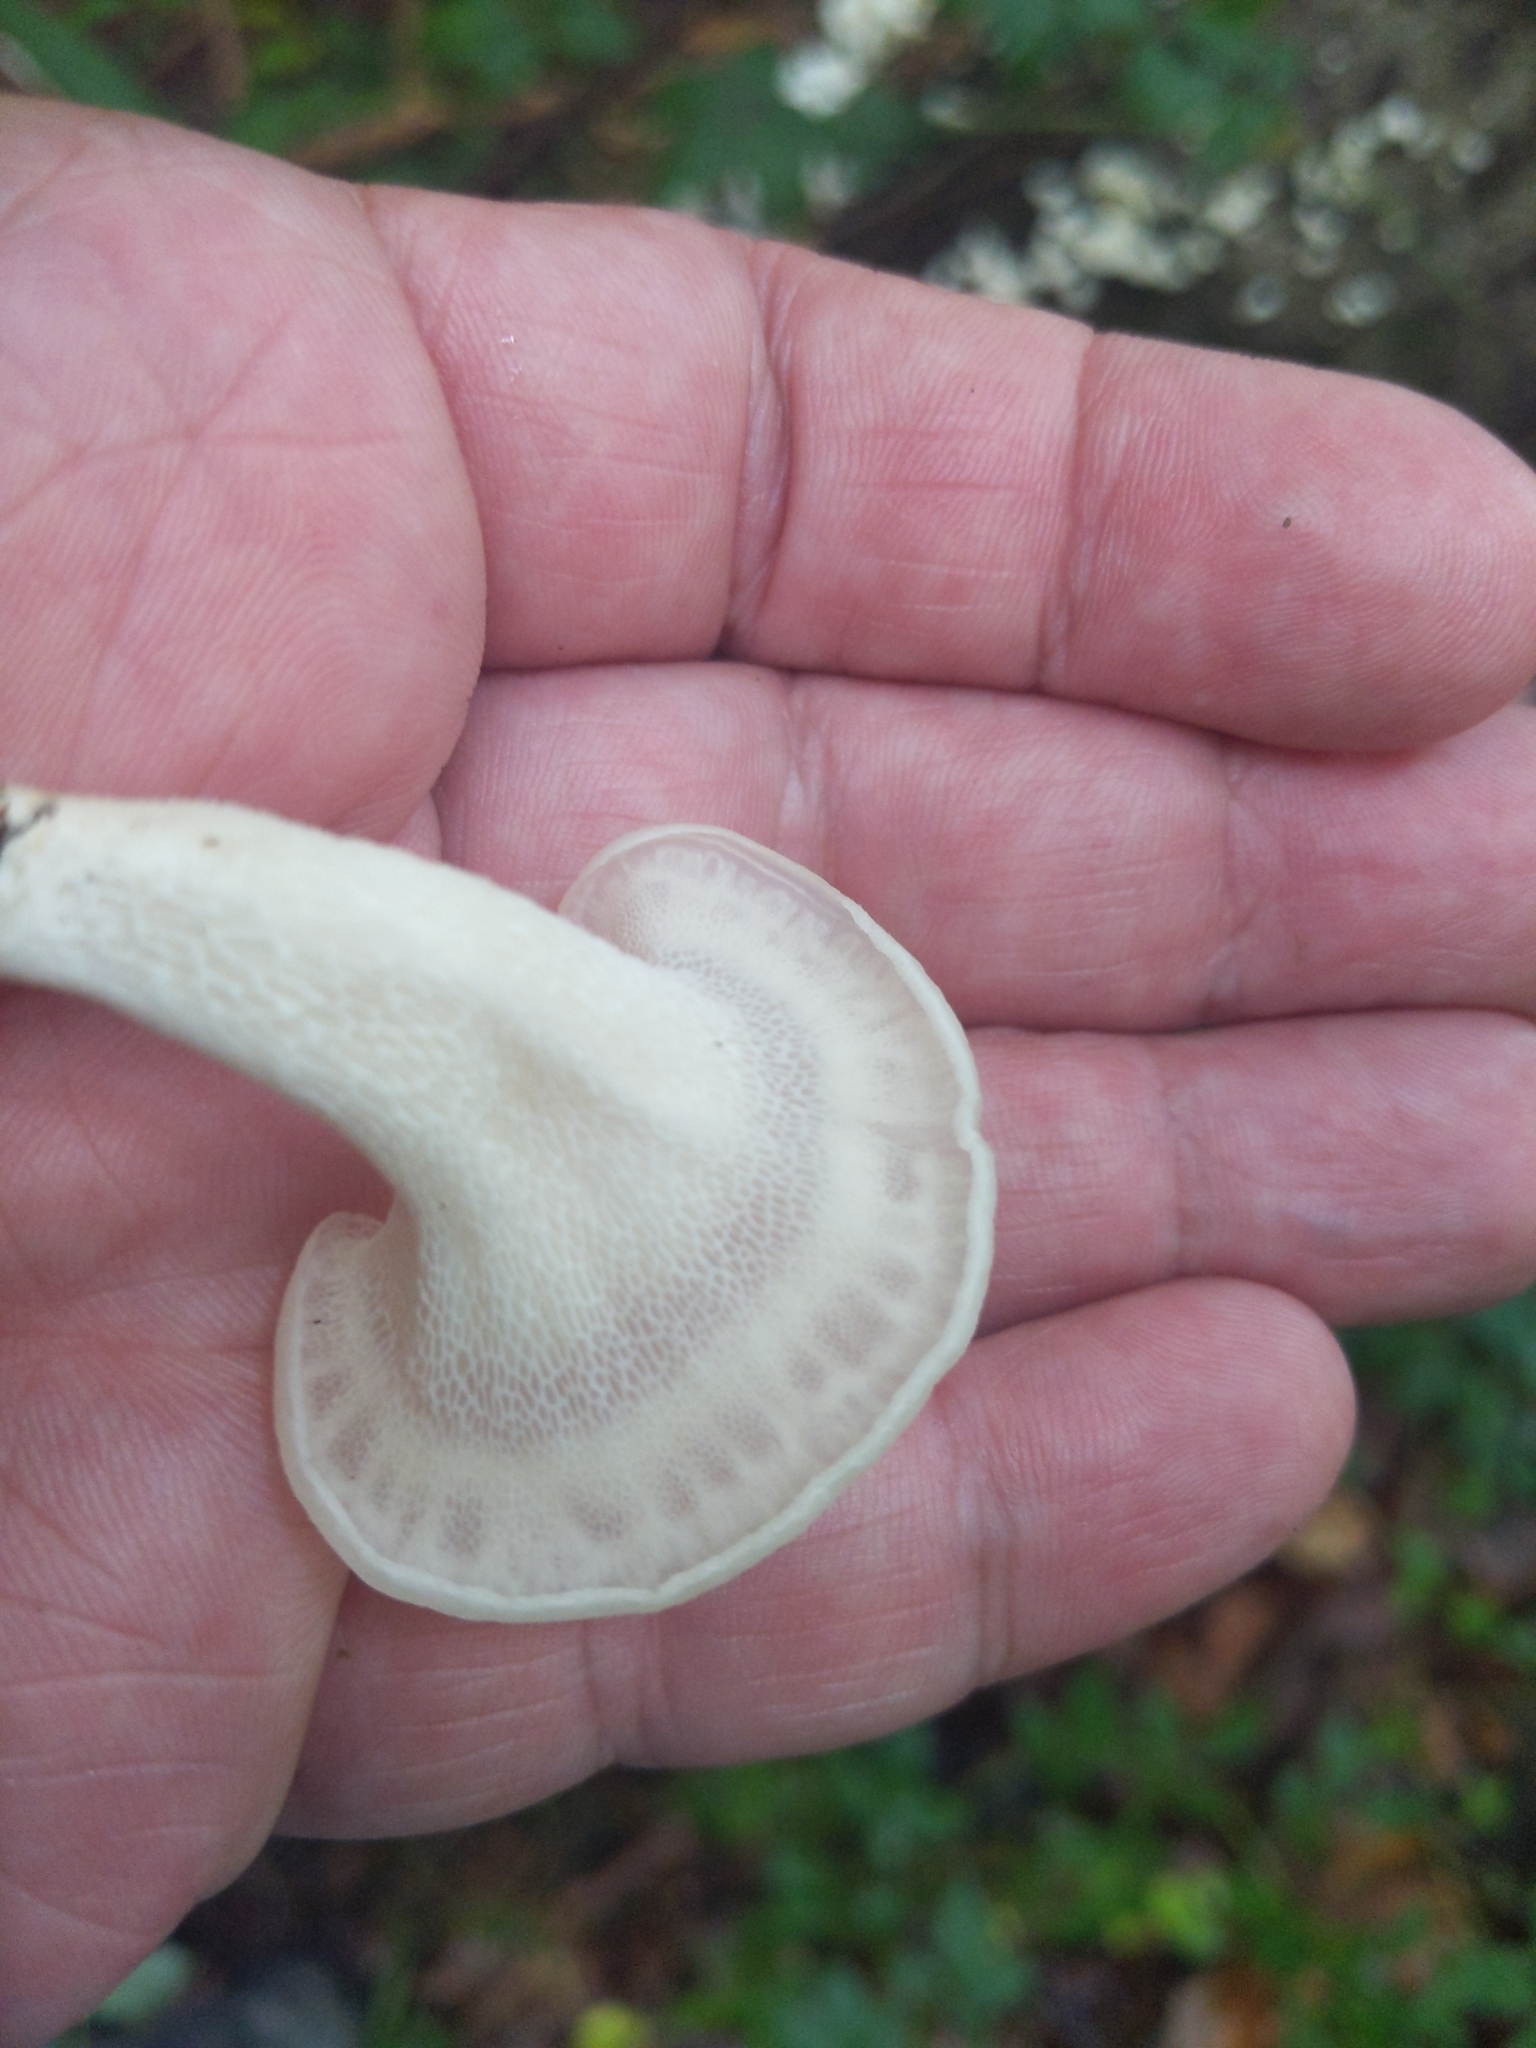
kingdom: Fungi
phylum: Basidiomycota
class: Agaricomycetes
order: Polyporales
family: Polyporaceae
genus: Favolus
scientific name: Favolus tenuiculus
